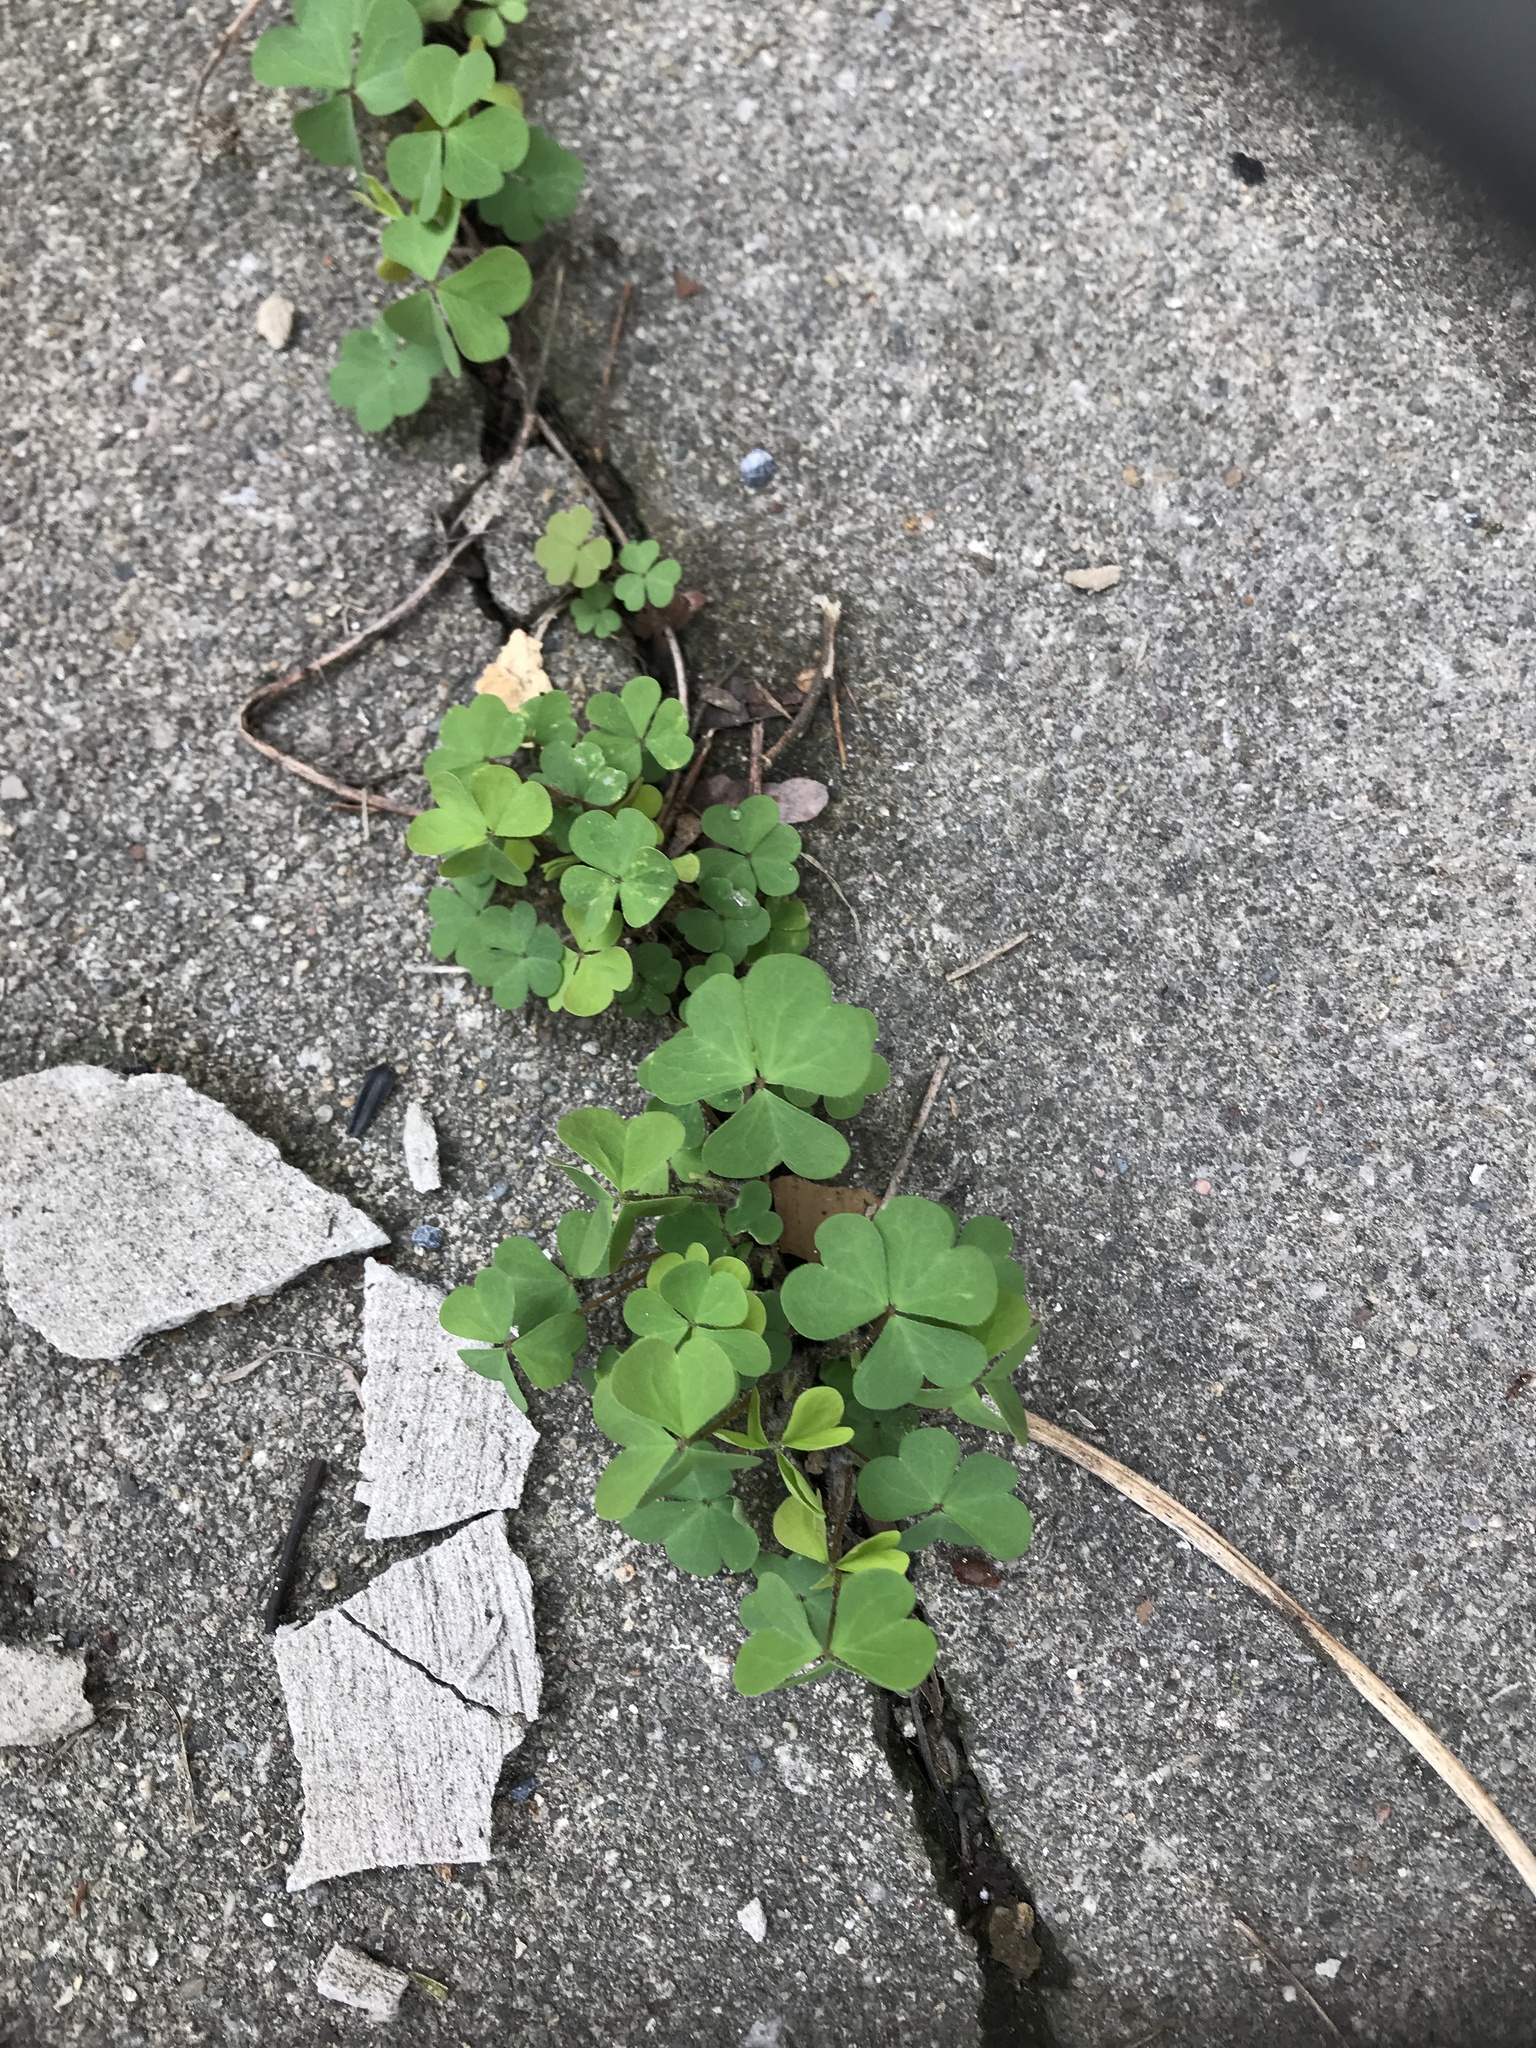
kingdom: Plantae
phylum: Tracheophyta
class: Magnoliopsida
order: Oxalidales
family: Oxalidaceae
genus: Oxalis
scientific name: Oxalis corniculata
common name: Procumbent yellow-sorrel
